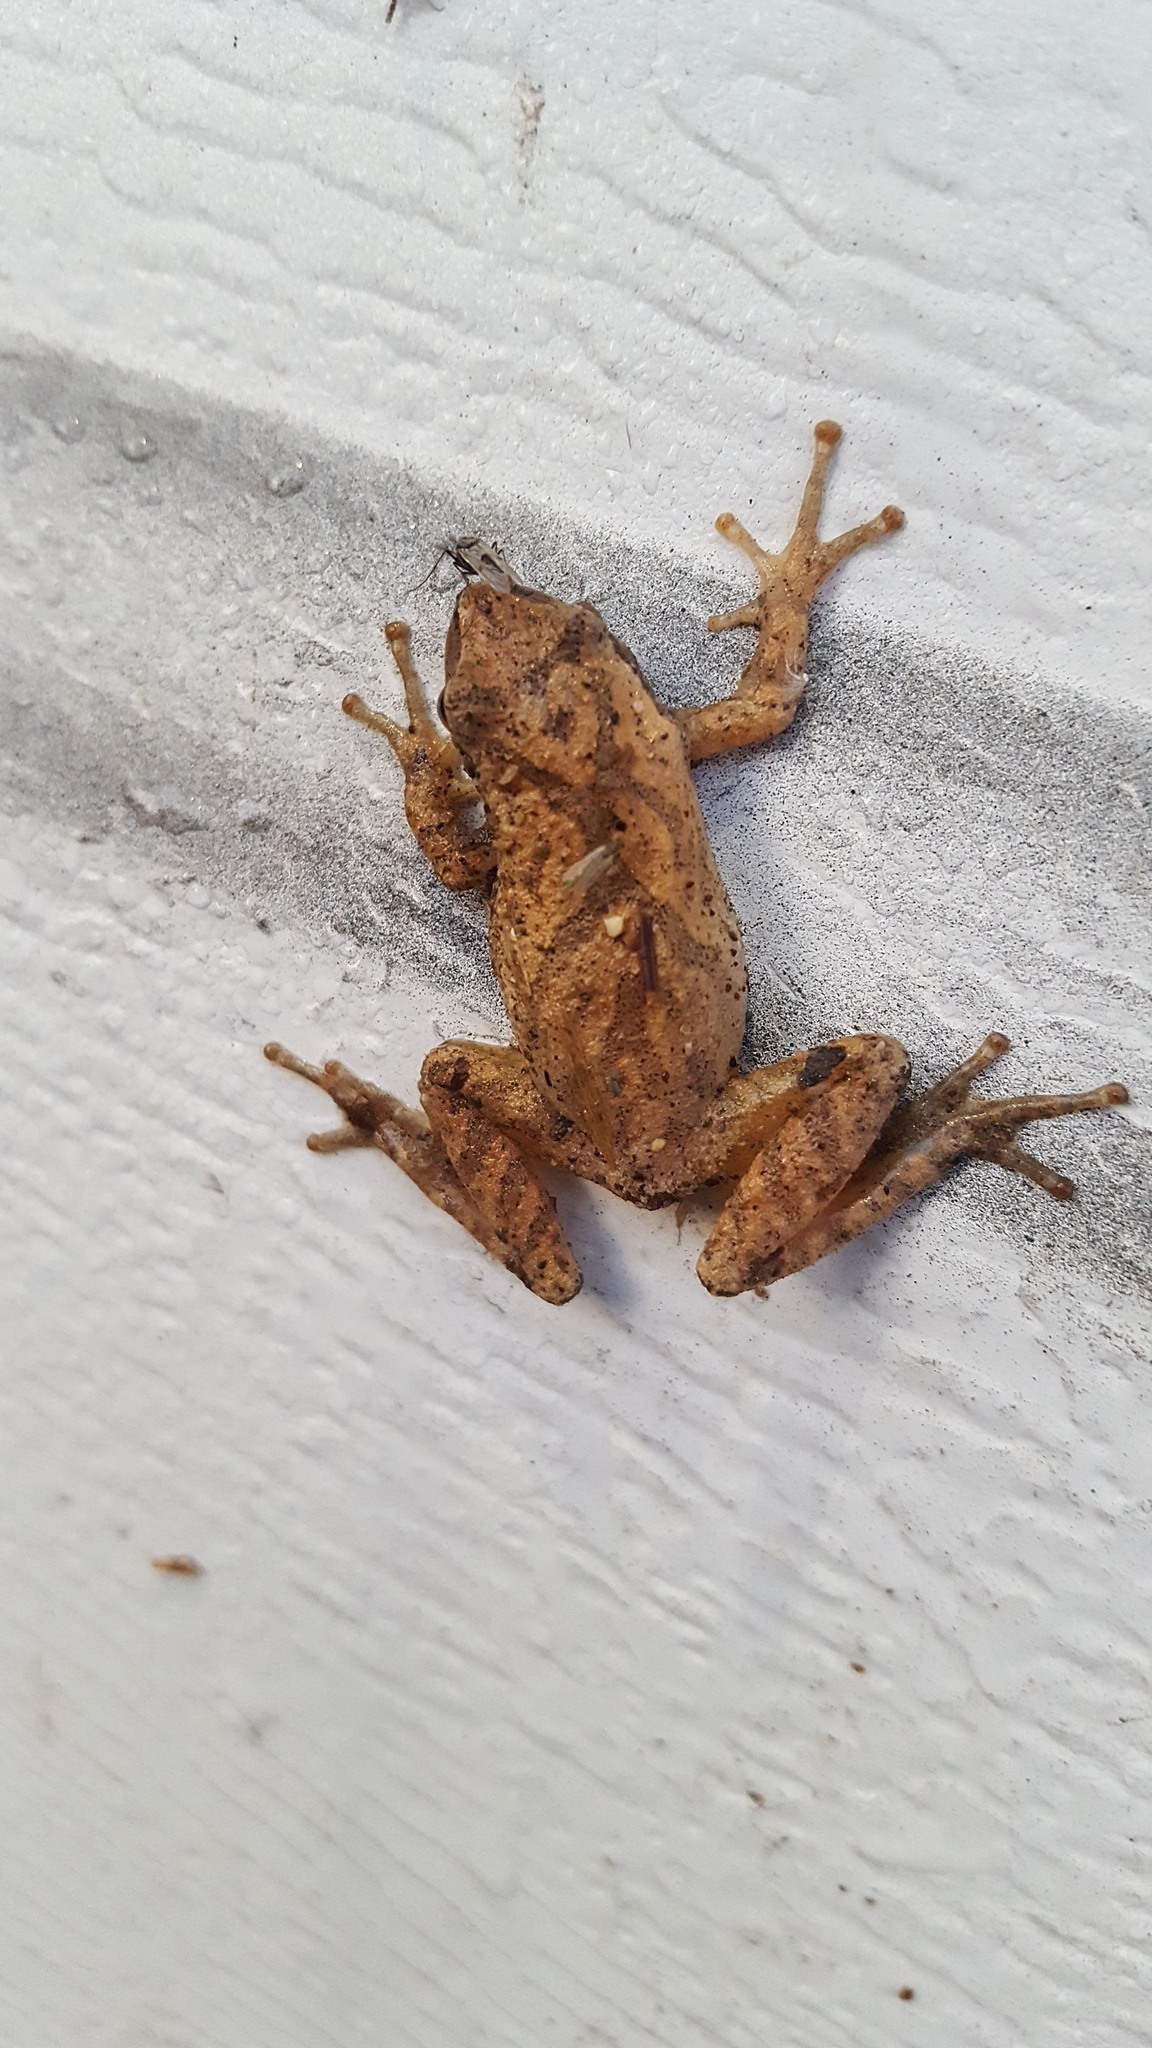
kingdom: Animalia
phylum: Chordata
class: Amphibia
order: Anura
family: Hylidae
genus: Pseudacris
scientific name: Pseudacris crucifer
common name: Spring peeper
